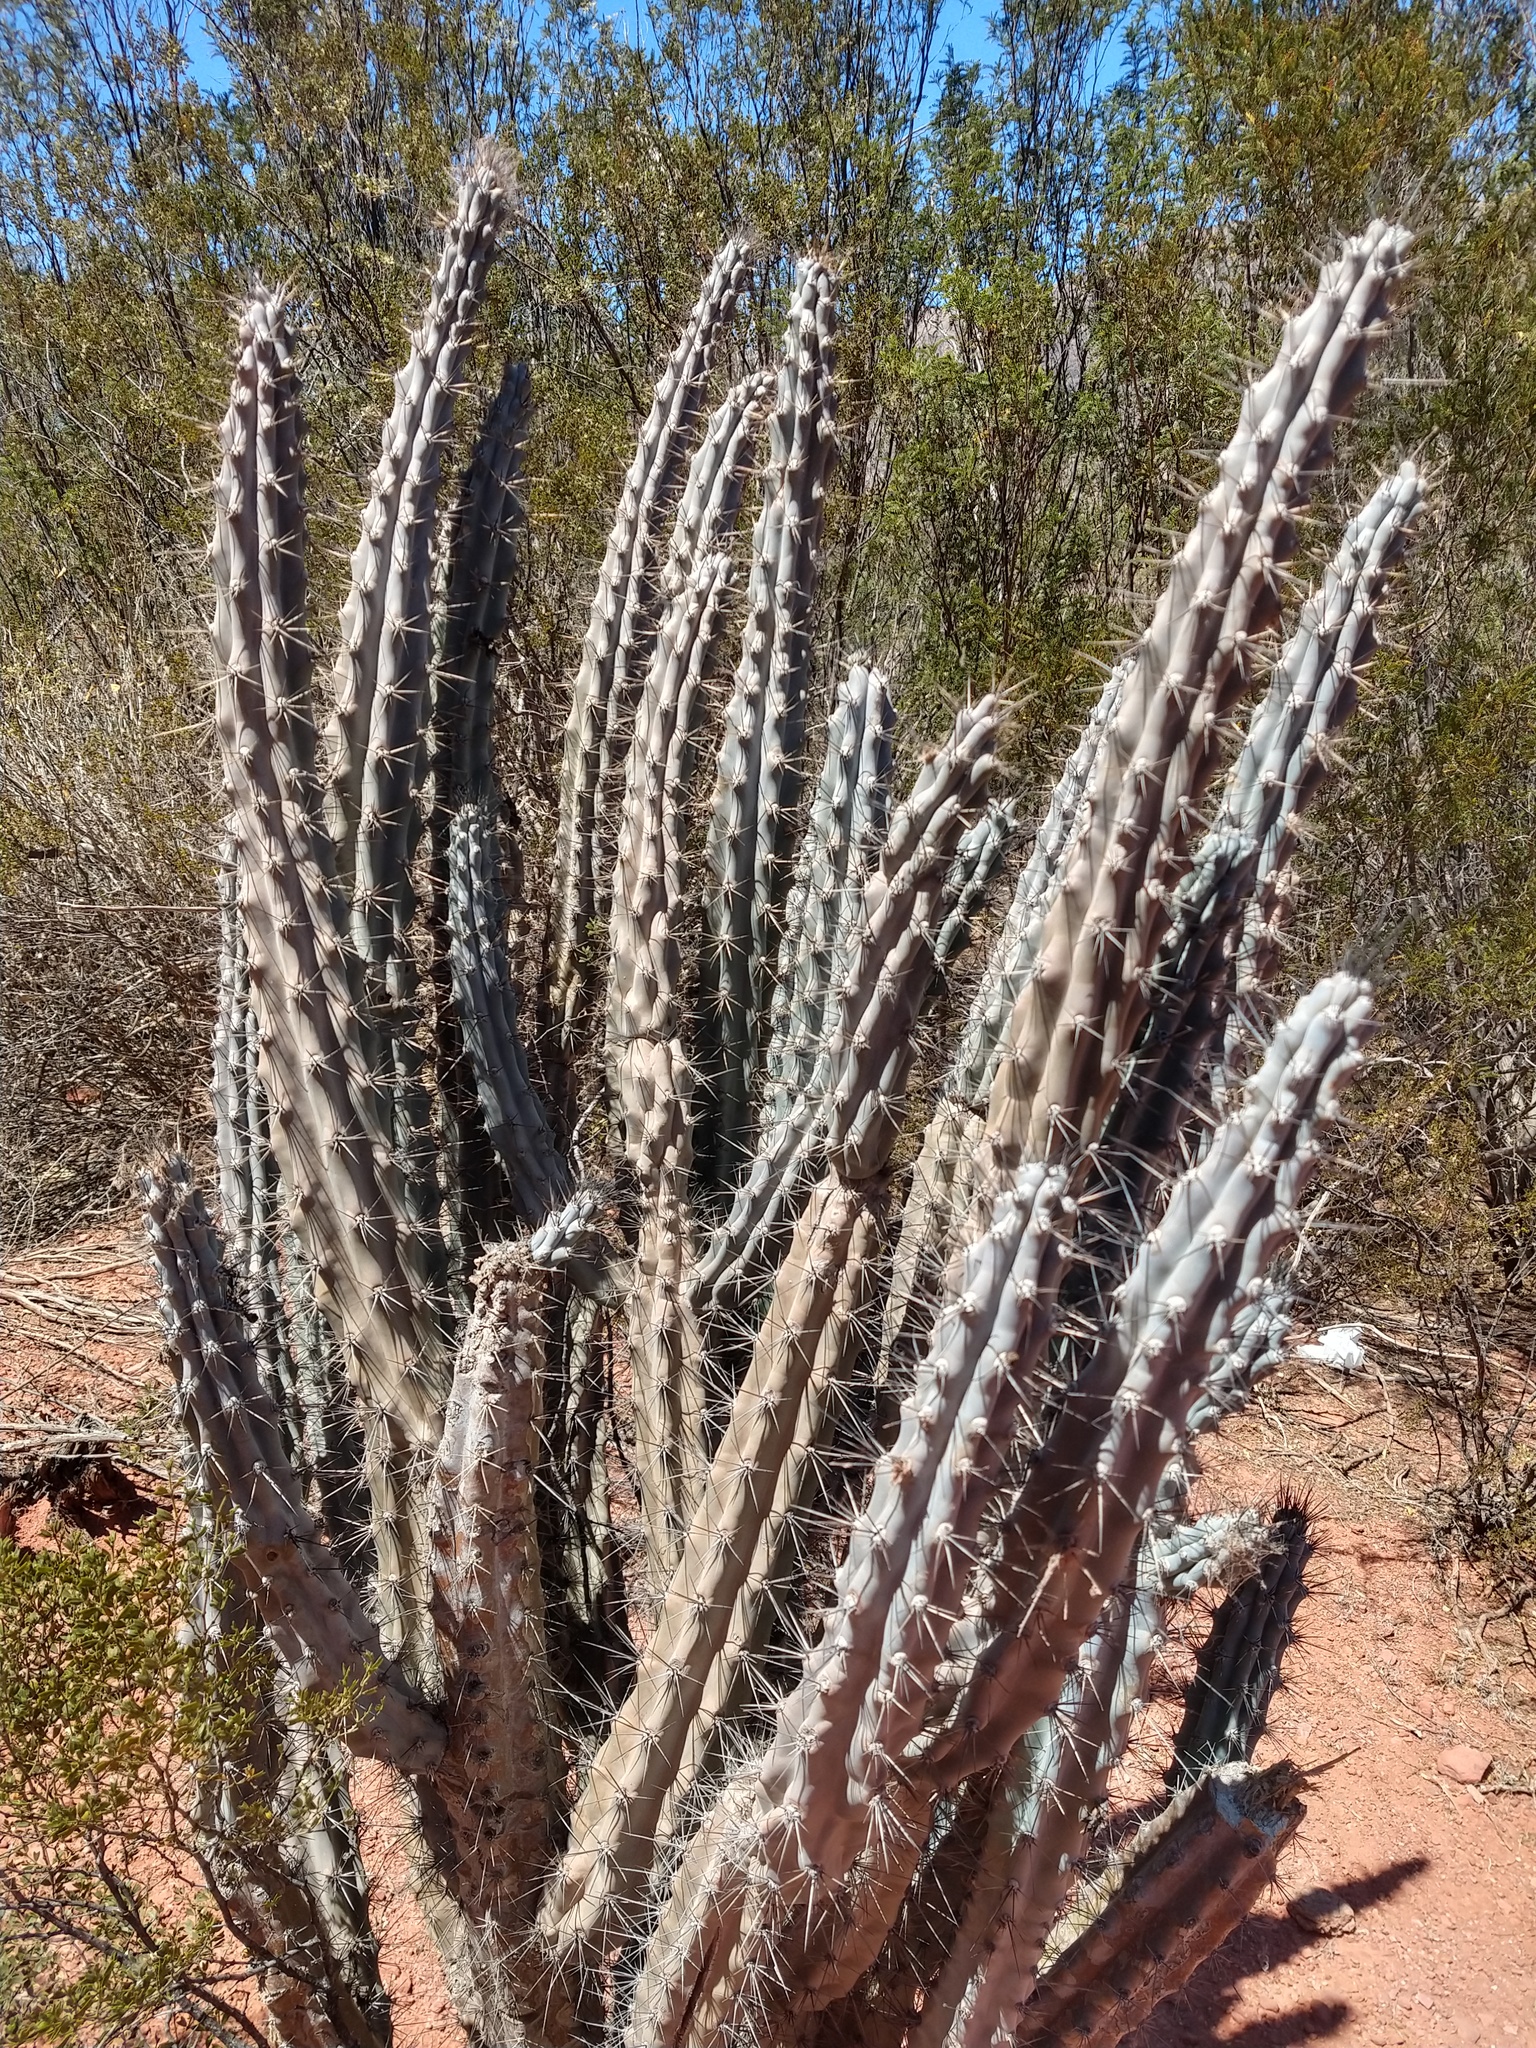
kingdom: Plantae
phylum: Tracheophyta
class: Magnoliopsida
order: Caryophyllales
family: Cactaceae
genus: Cereus
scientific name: Cereus aethiops
